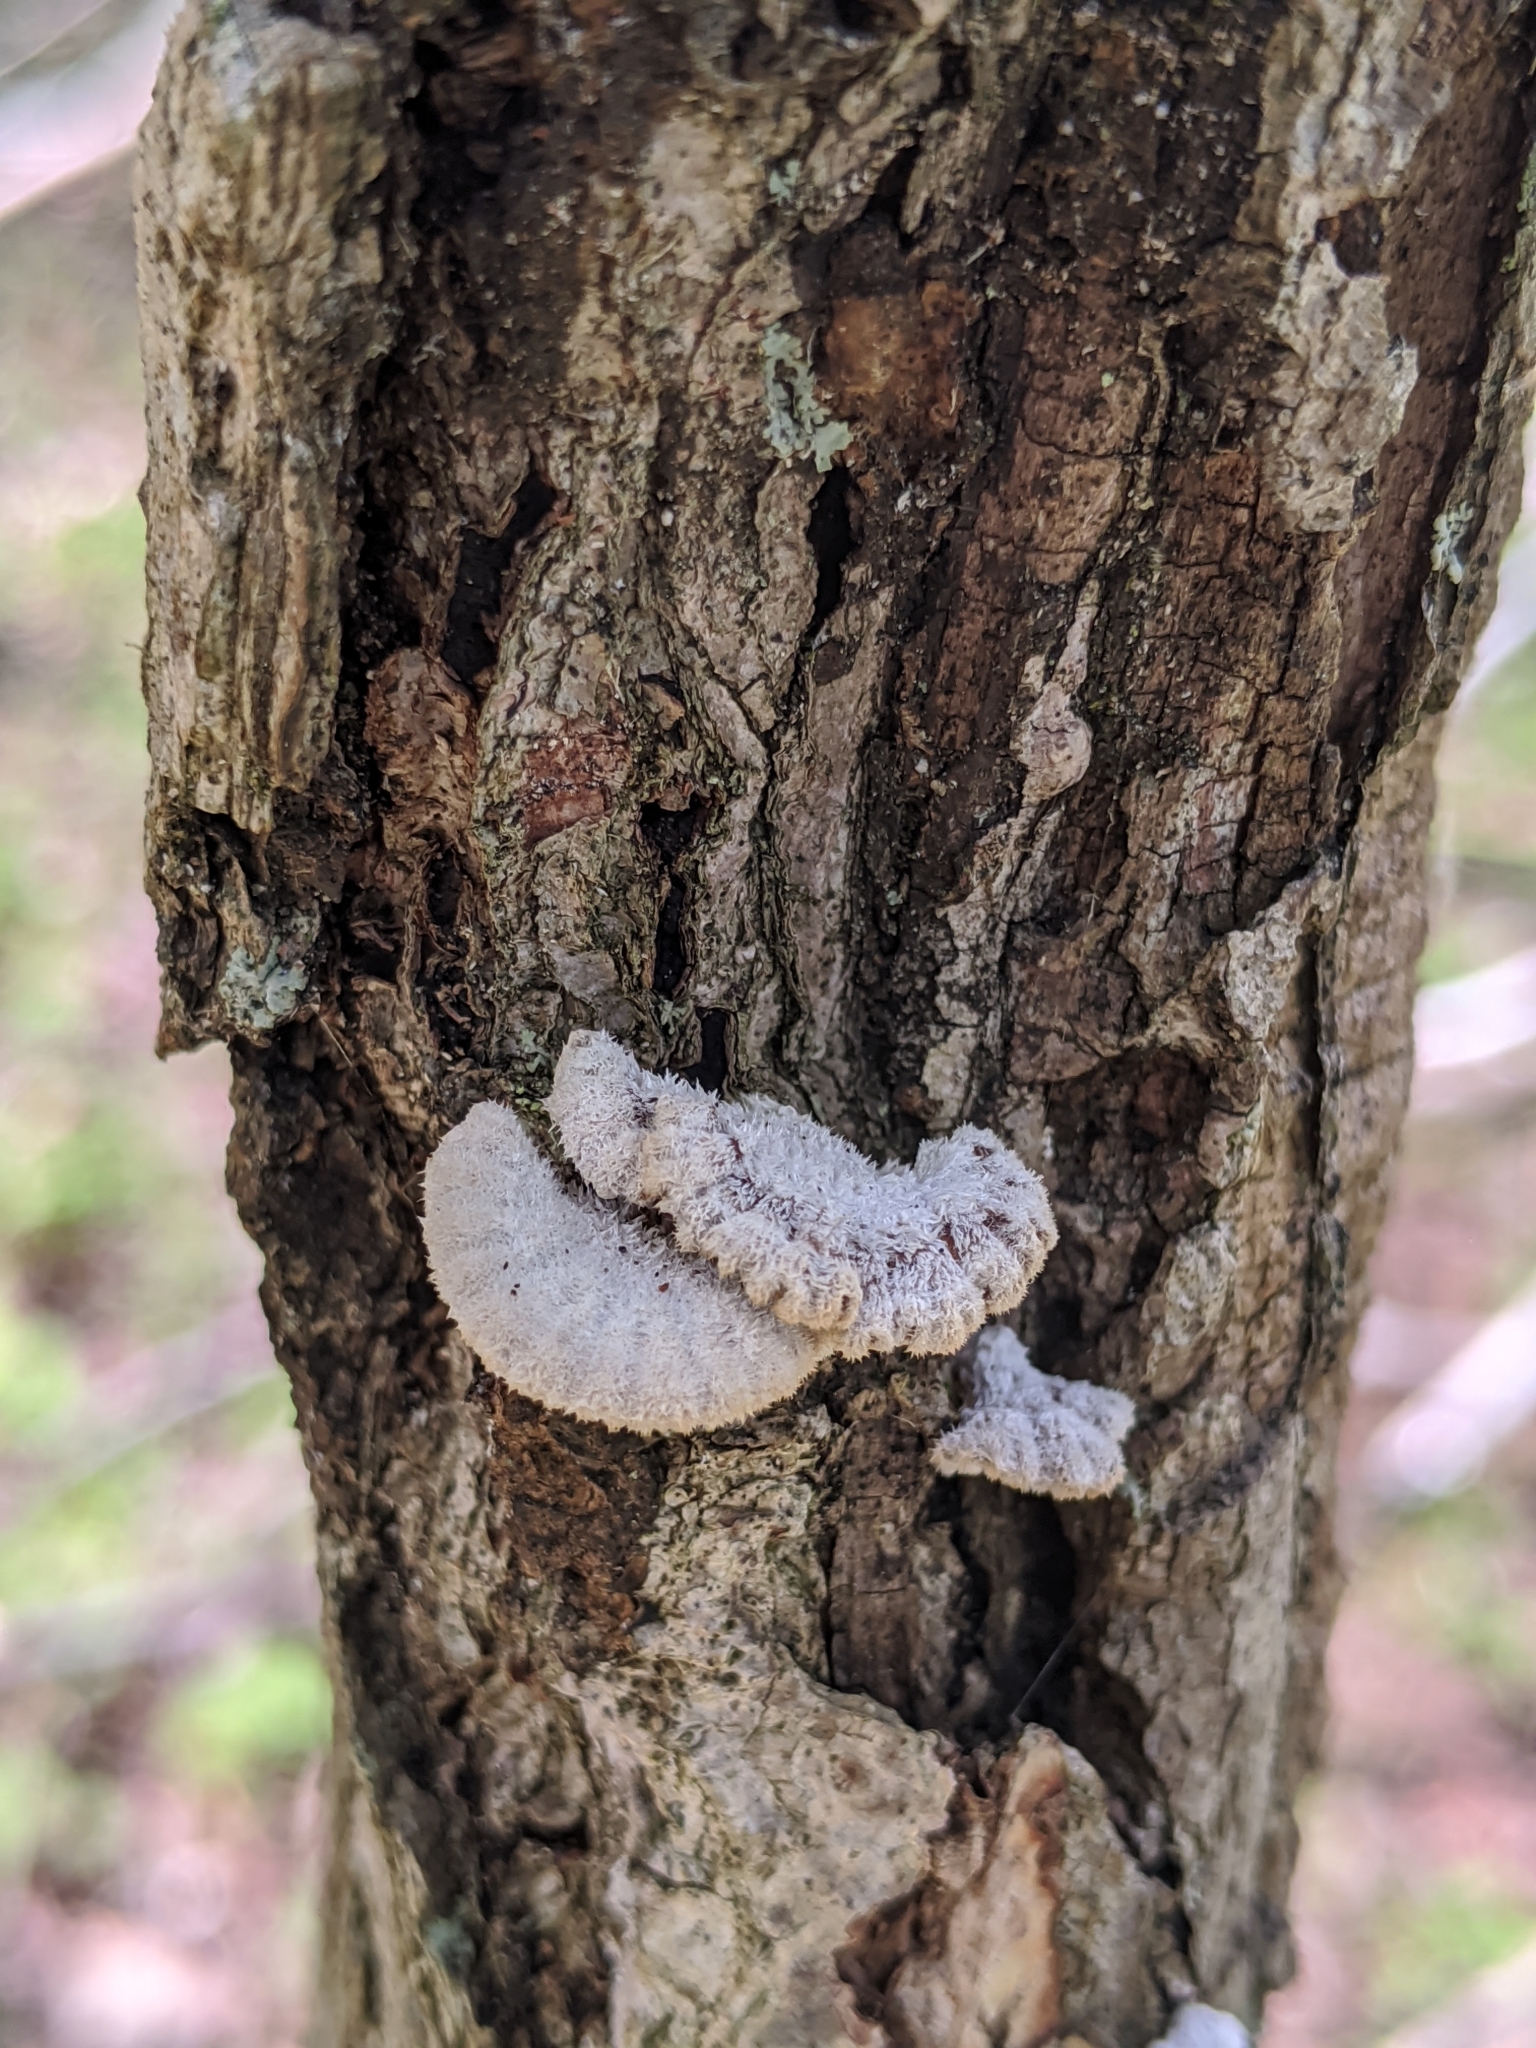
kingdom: Fungi
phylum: Basidiomycota
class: Agaricomycetes
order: Agaricales
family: Schizophyllaceae
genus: Schizophyllum
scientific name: Schizophyllum commune
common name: Common porecrust
